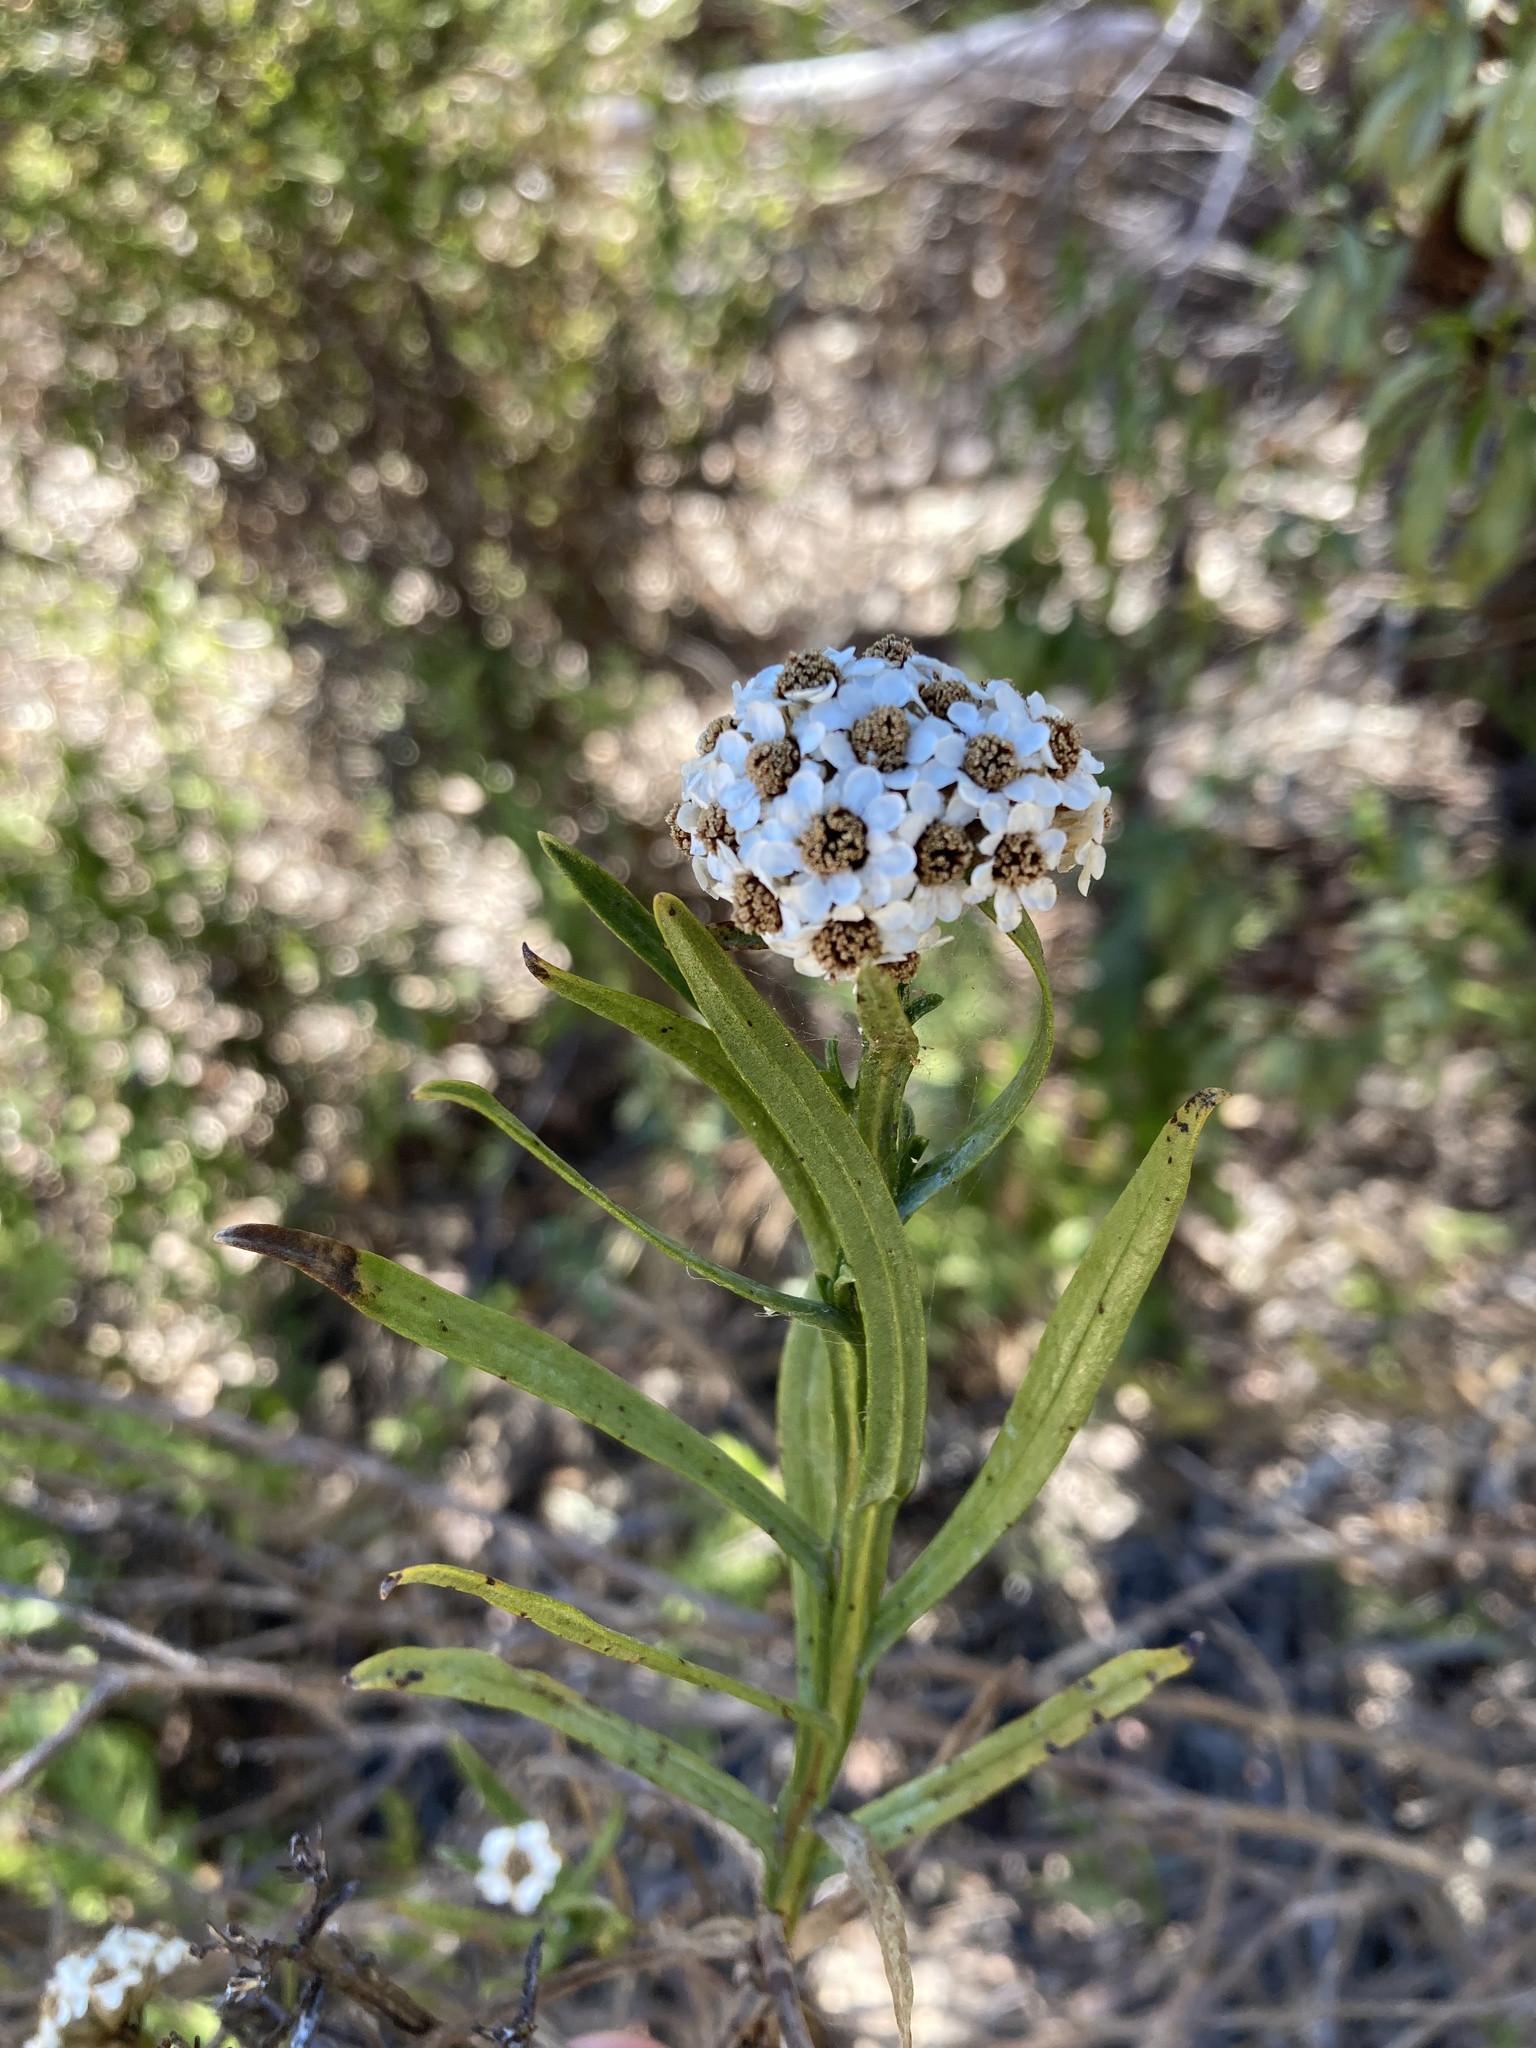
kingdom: Plantae
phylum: Tracheophyta
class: Magnoliopsida
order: Asterales
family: Asteraceae
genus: Ixodia
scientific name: Ixodia achillaeoides
